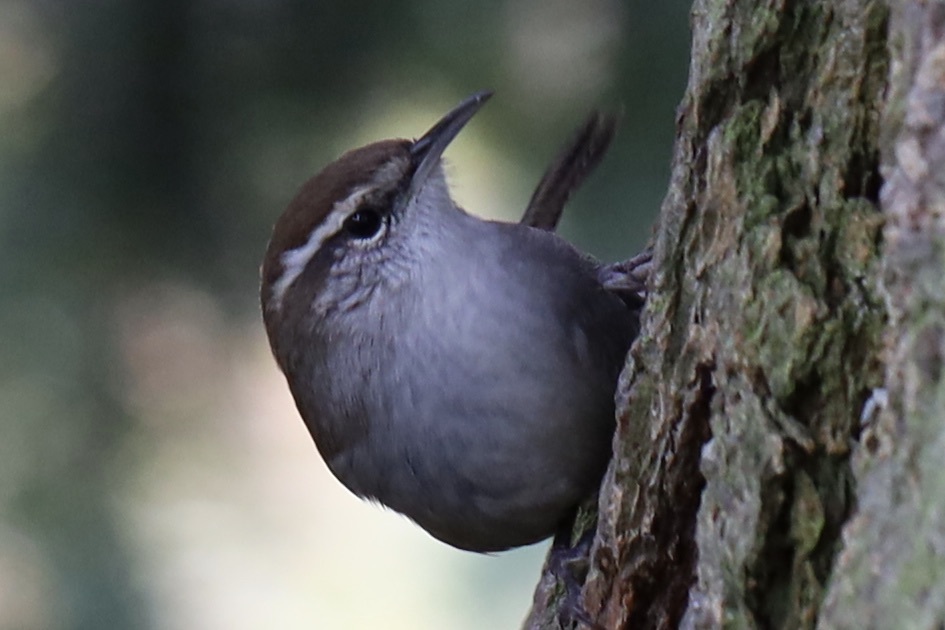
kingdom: Animalia
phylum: Chordata
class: Aves
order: Passeriformes
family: Troglodytidae
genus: Thryomanes
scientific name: Thryomanes bewickii
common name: Bewick's wren
